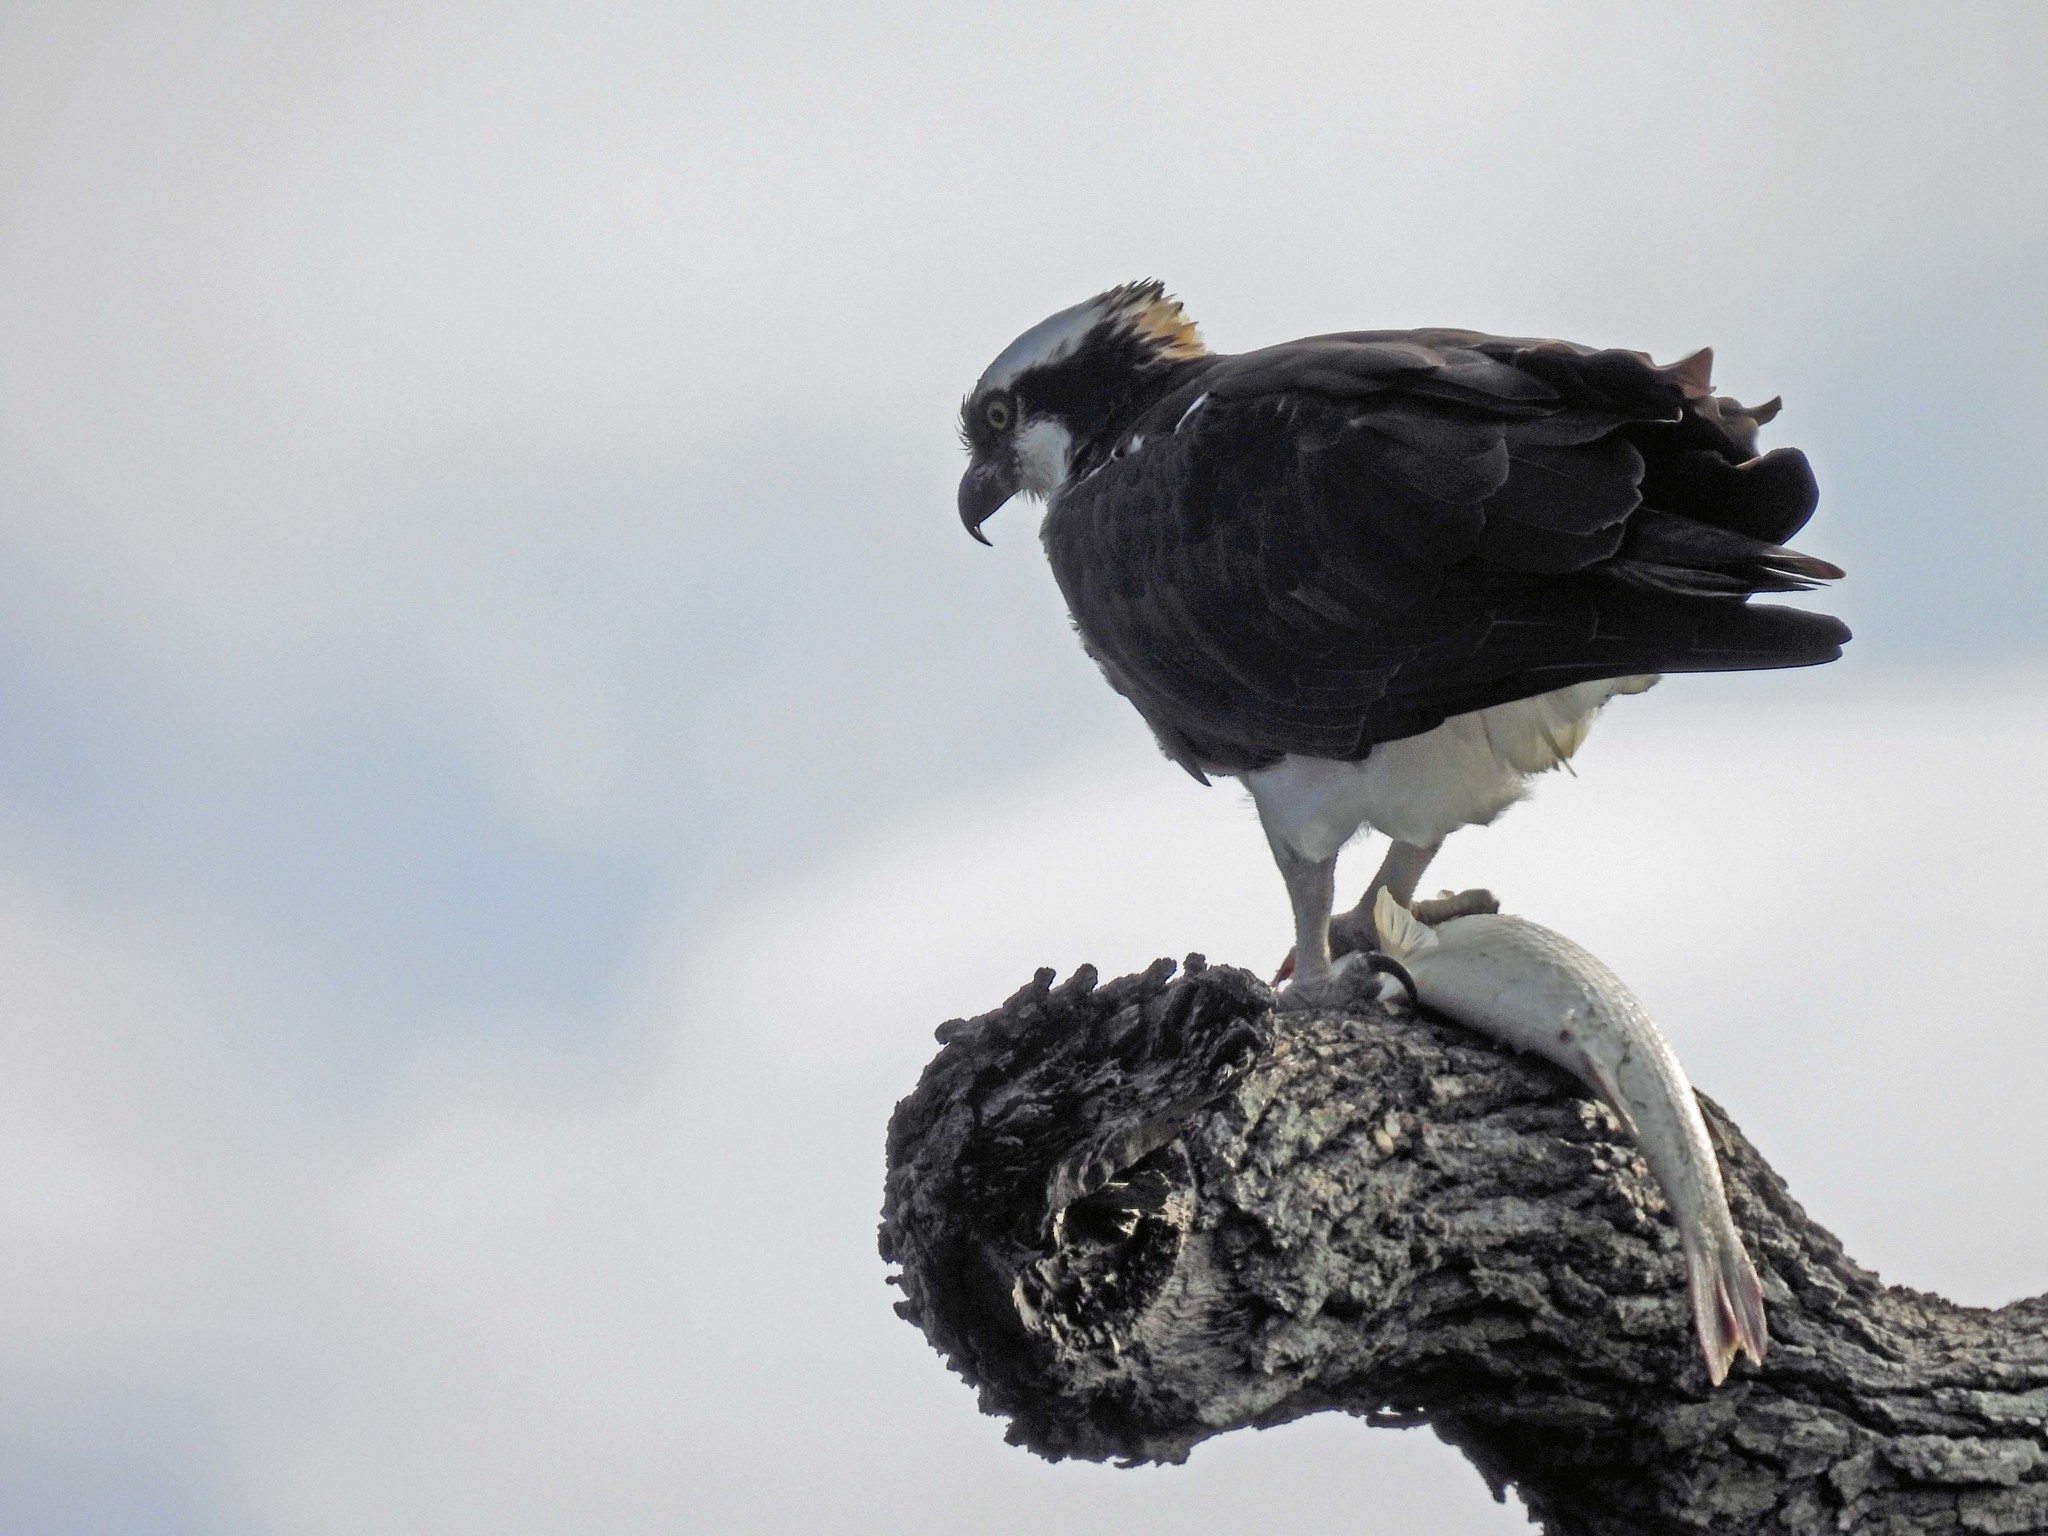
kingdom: Animalia
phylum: Chordata
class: Aves
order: Accipitriformes
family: Pandionidae
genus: Pandion
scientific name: Pandion haliaetus
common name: Osprey
